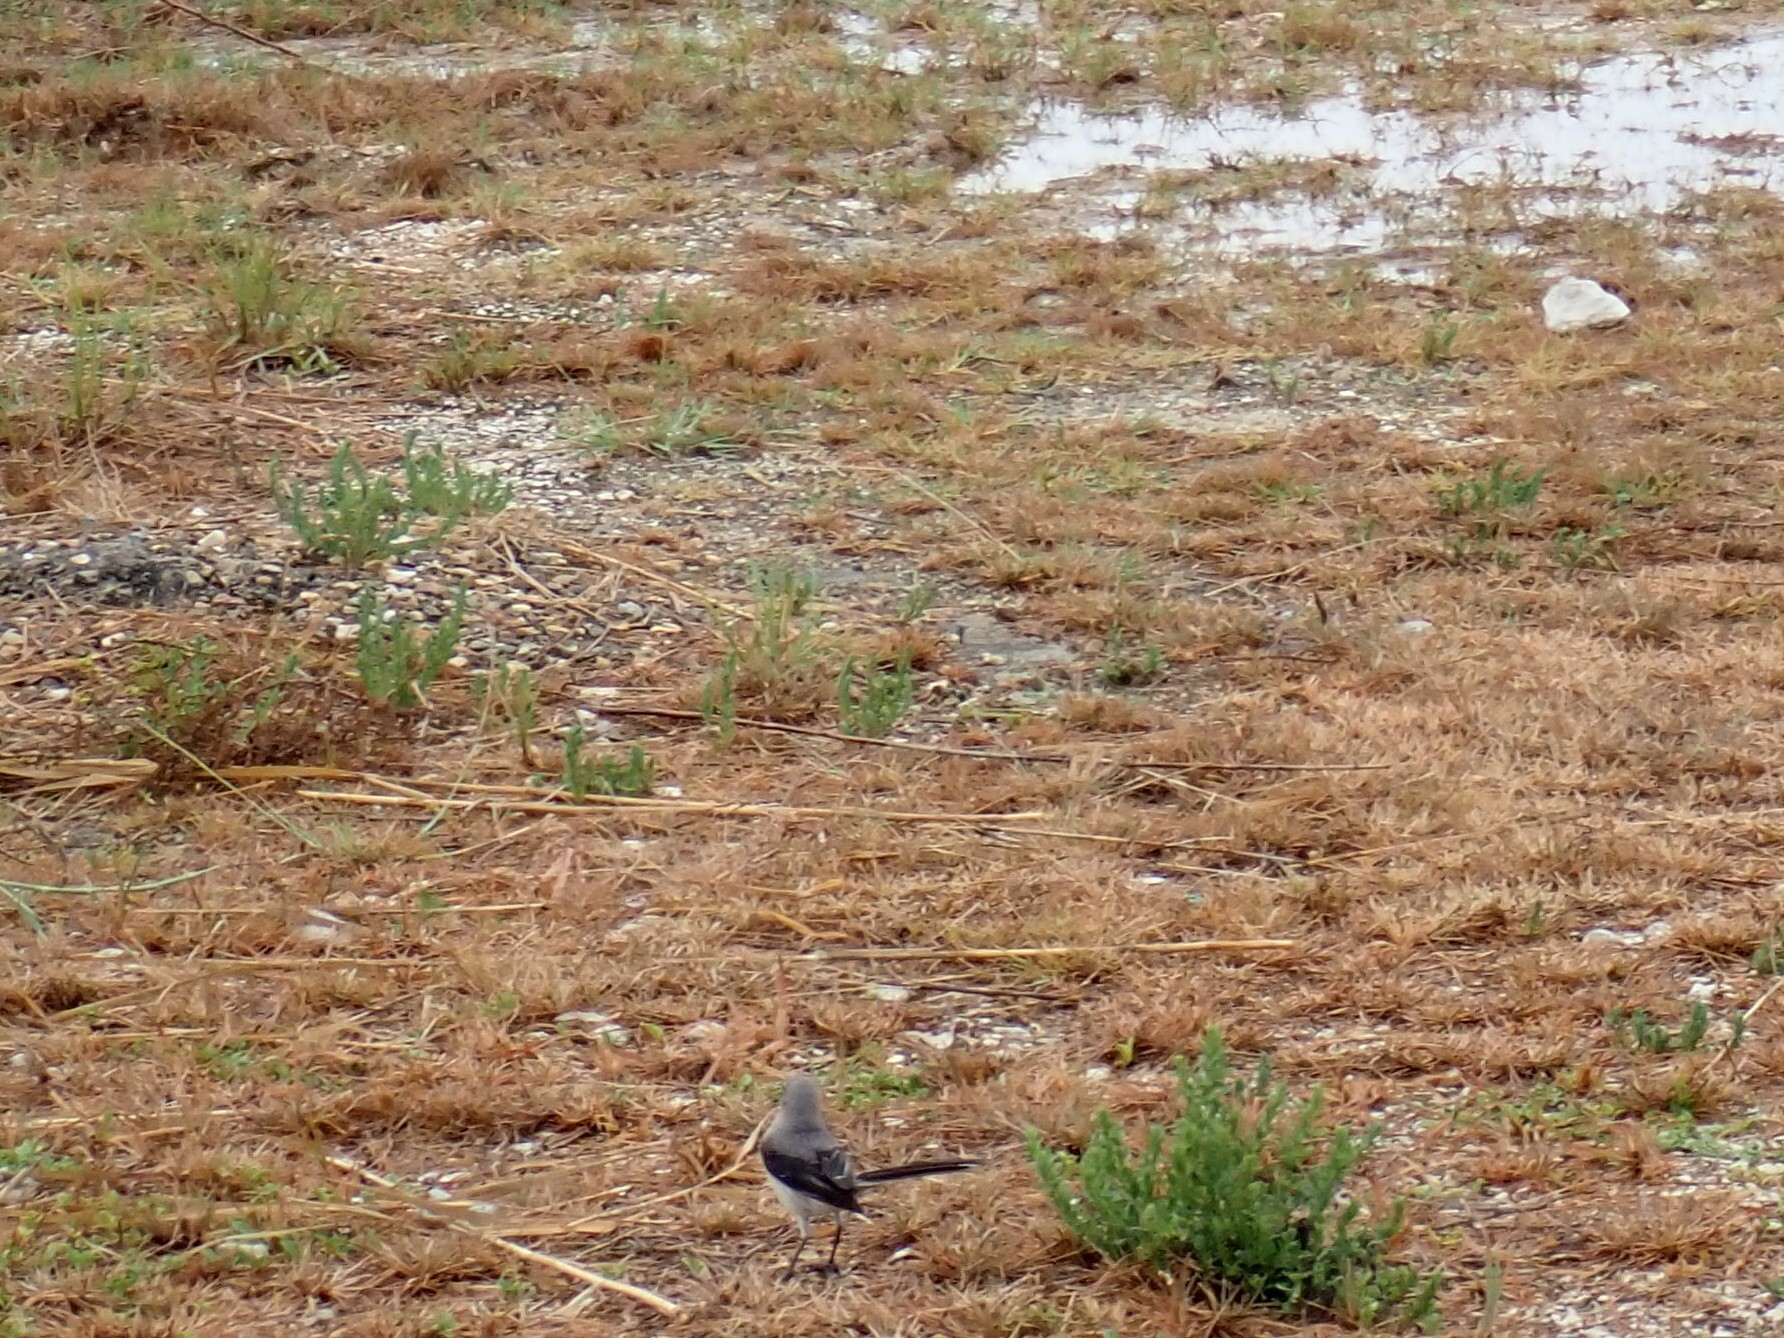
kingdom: Animalia
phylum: Chordata
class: Aves
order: Passeriformes
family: Mimidae
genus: Mimus
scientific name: Mimus gilvus
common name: Tropical mockingbird
